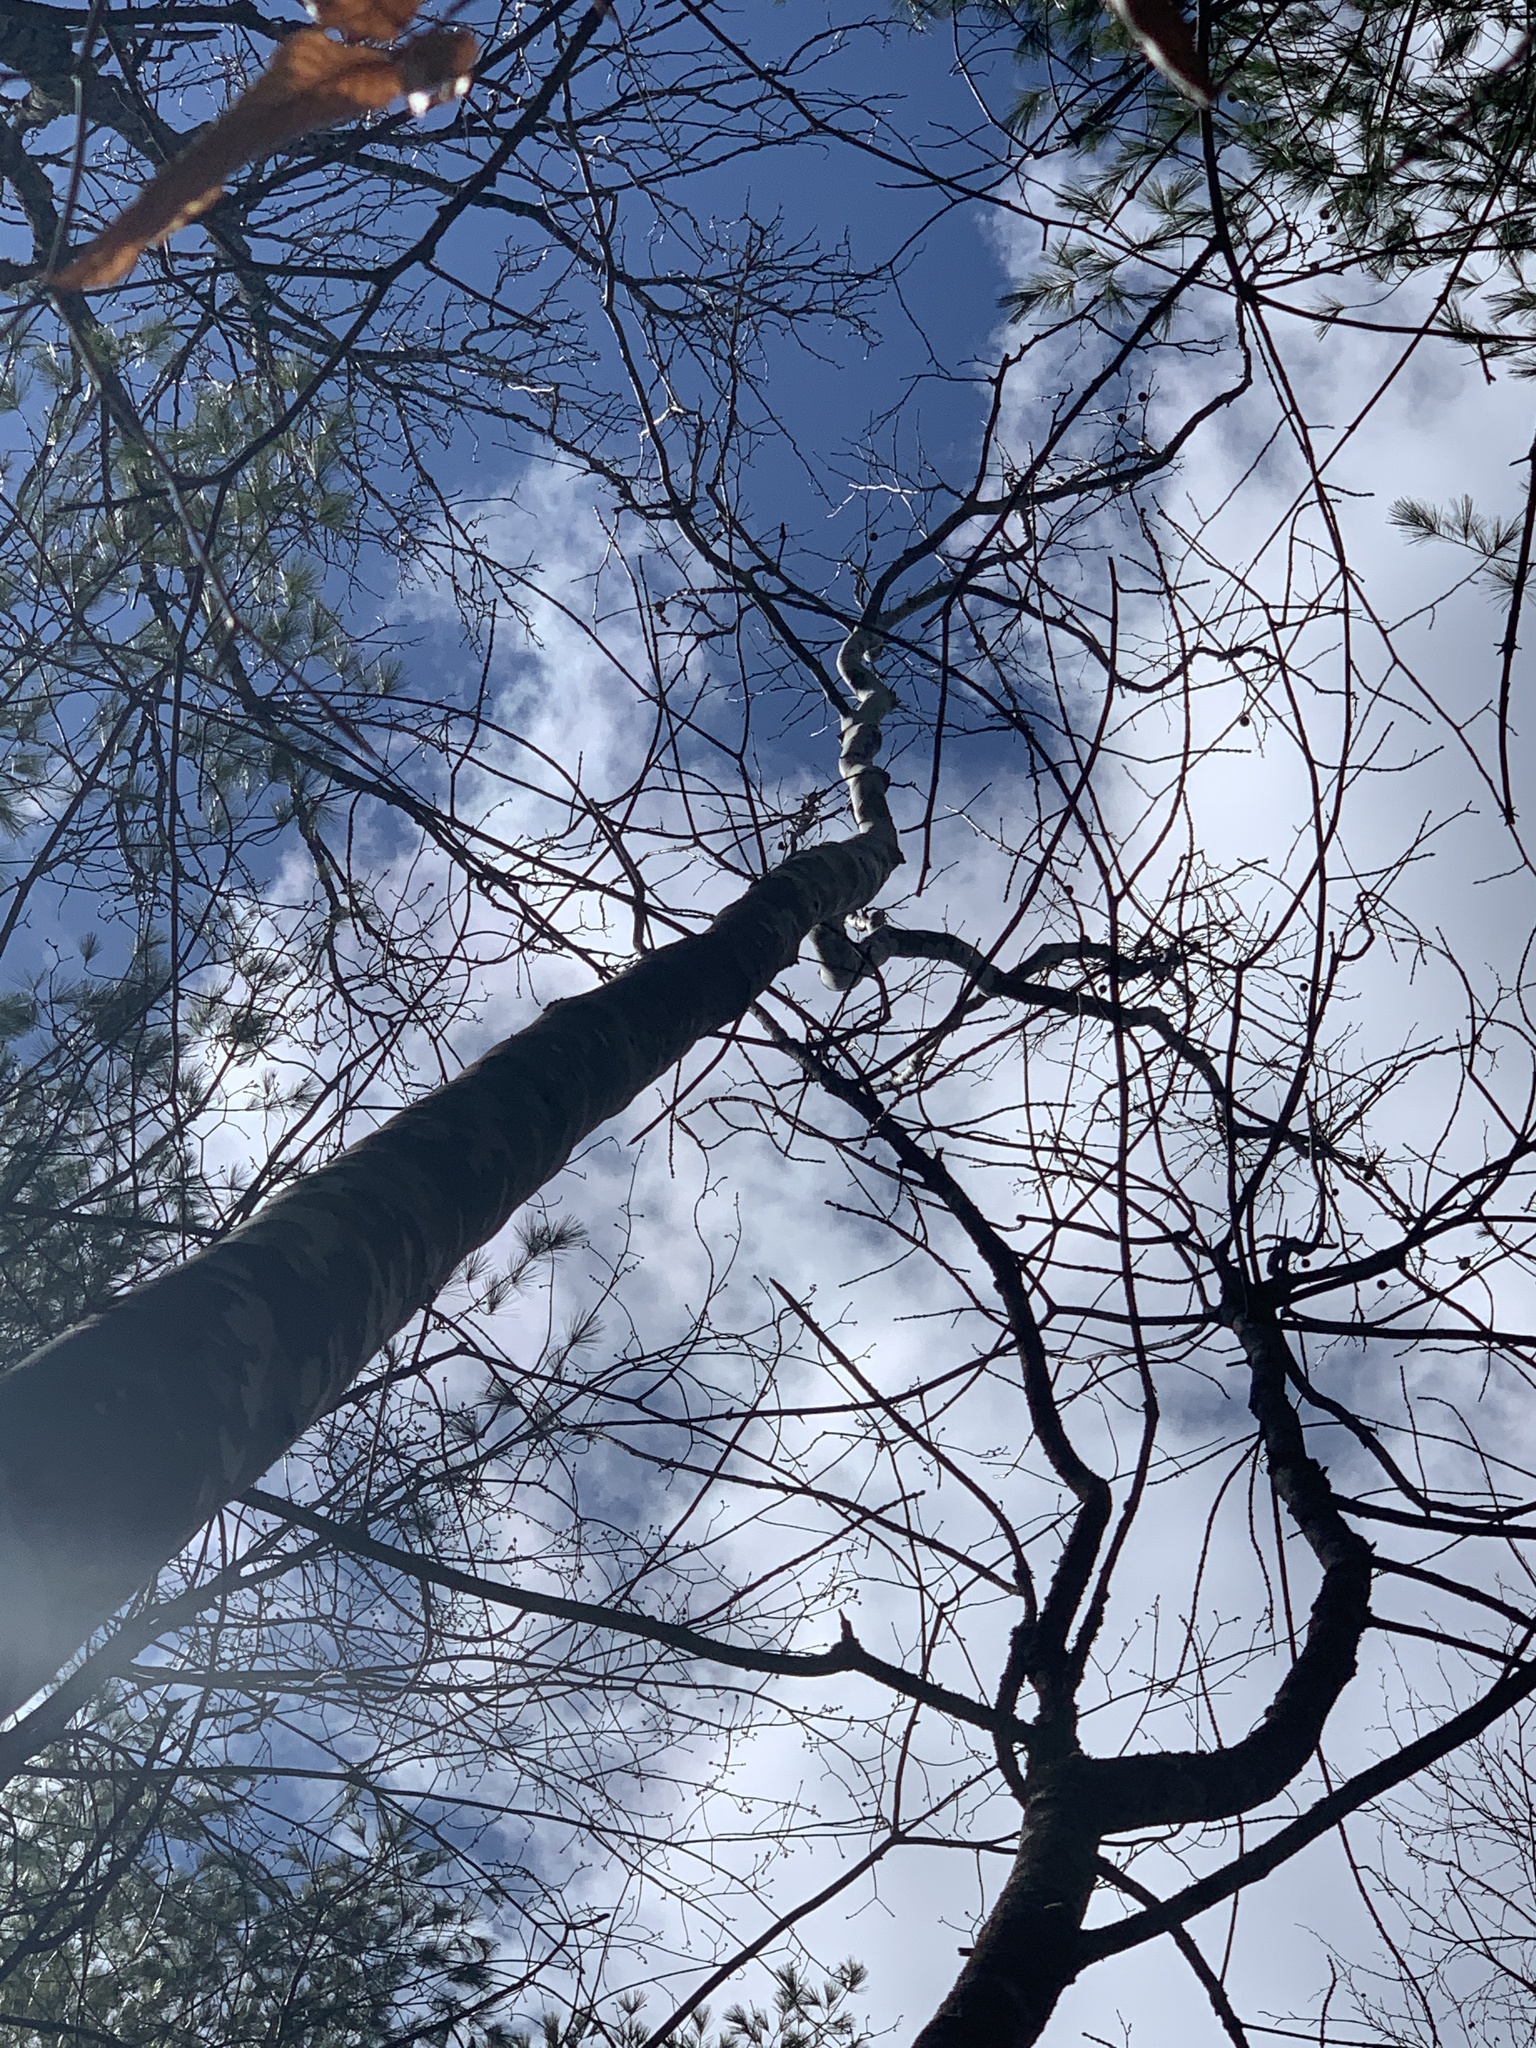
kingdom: Plantae
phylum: Tracheophyta
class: Magnoliopsida
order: Proteales
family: Platanaceae
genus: Platanus
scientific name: Platanus occidentalis
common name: American sycamore
